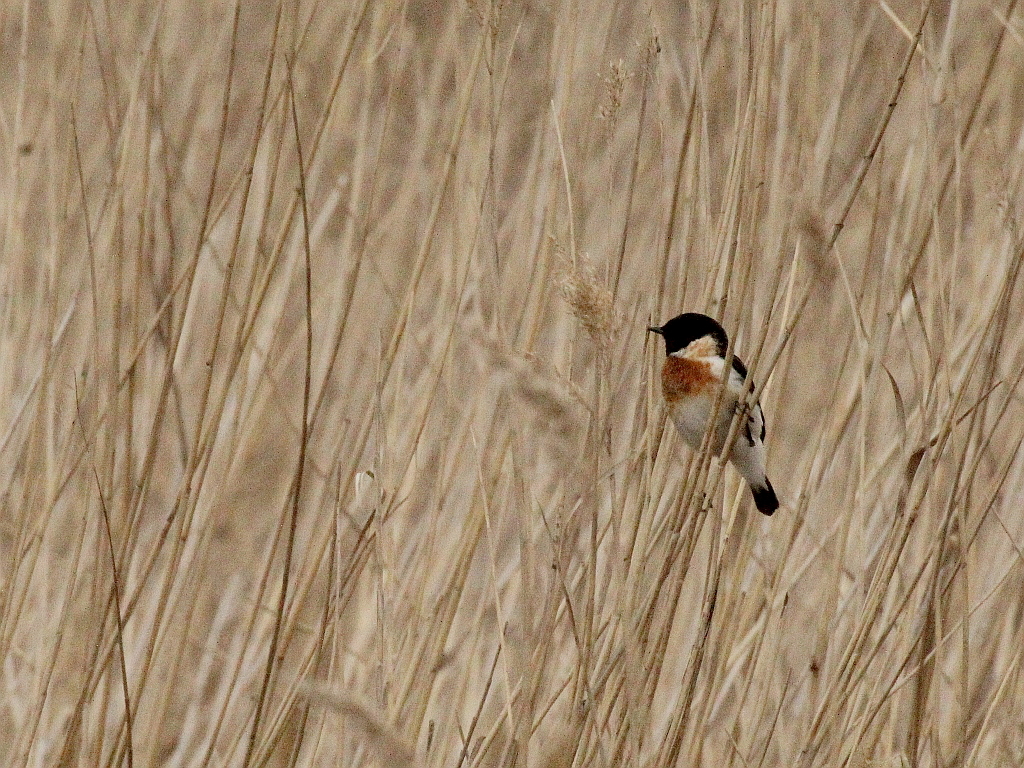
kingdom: Animalia
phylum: Chordata
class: Aves
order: Passeriformes
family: Muscicapidae
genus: Saxicola
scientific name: Saxicola maurus
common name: Siberian stonechat
